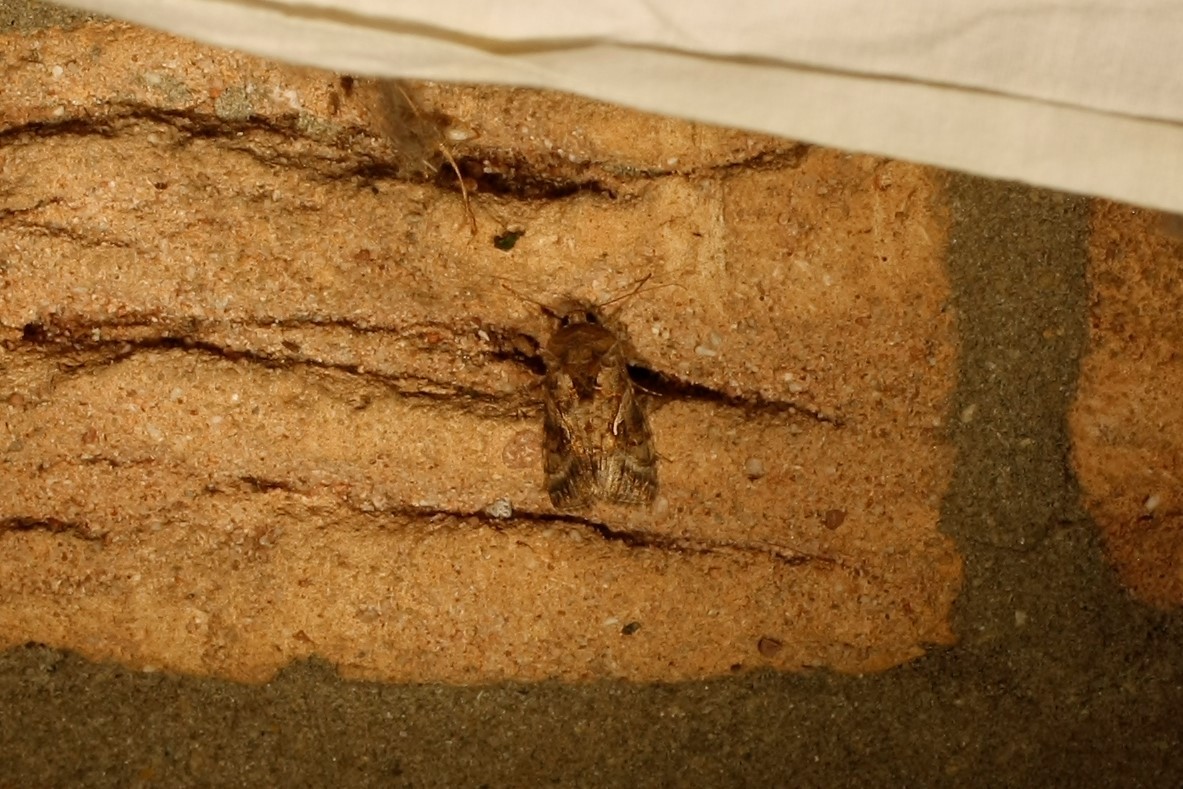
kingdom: Animalia
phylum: Arthropoda
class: Insecta
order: Lepidoptera
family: Noctuidae
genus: Autographa
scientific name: Autographa gamma
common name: Silver y
